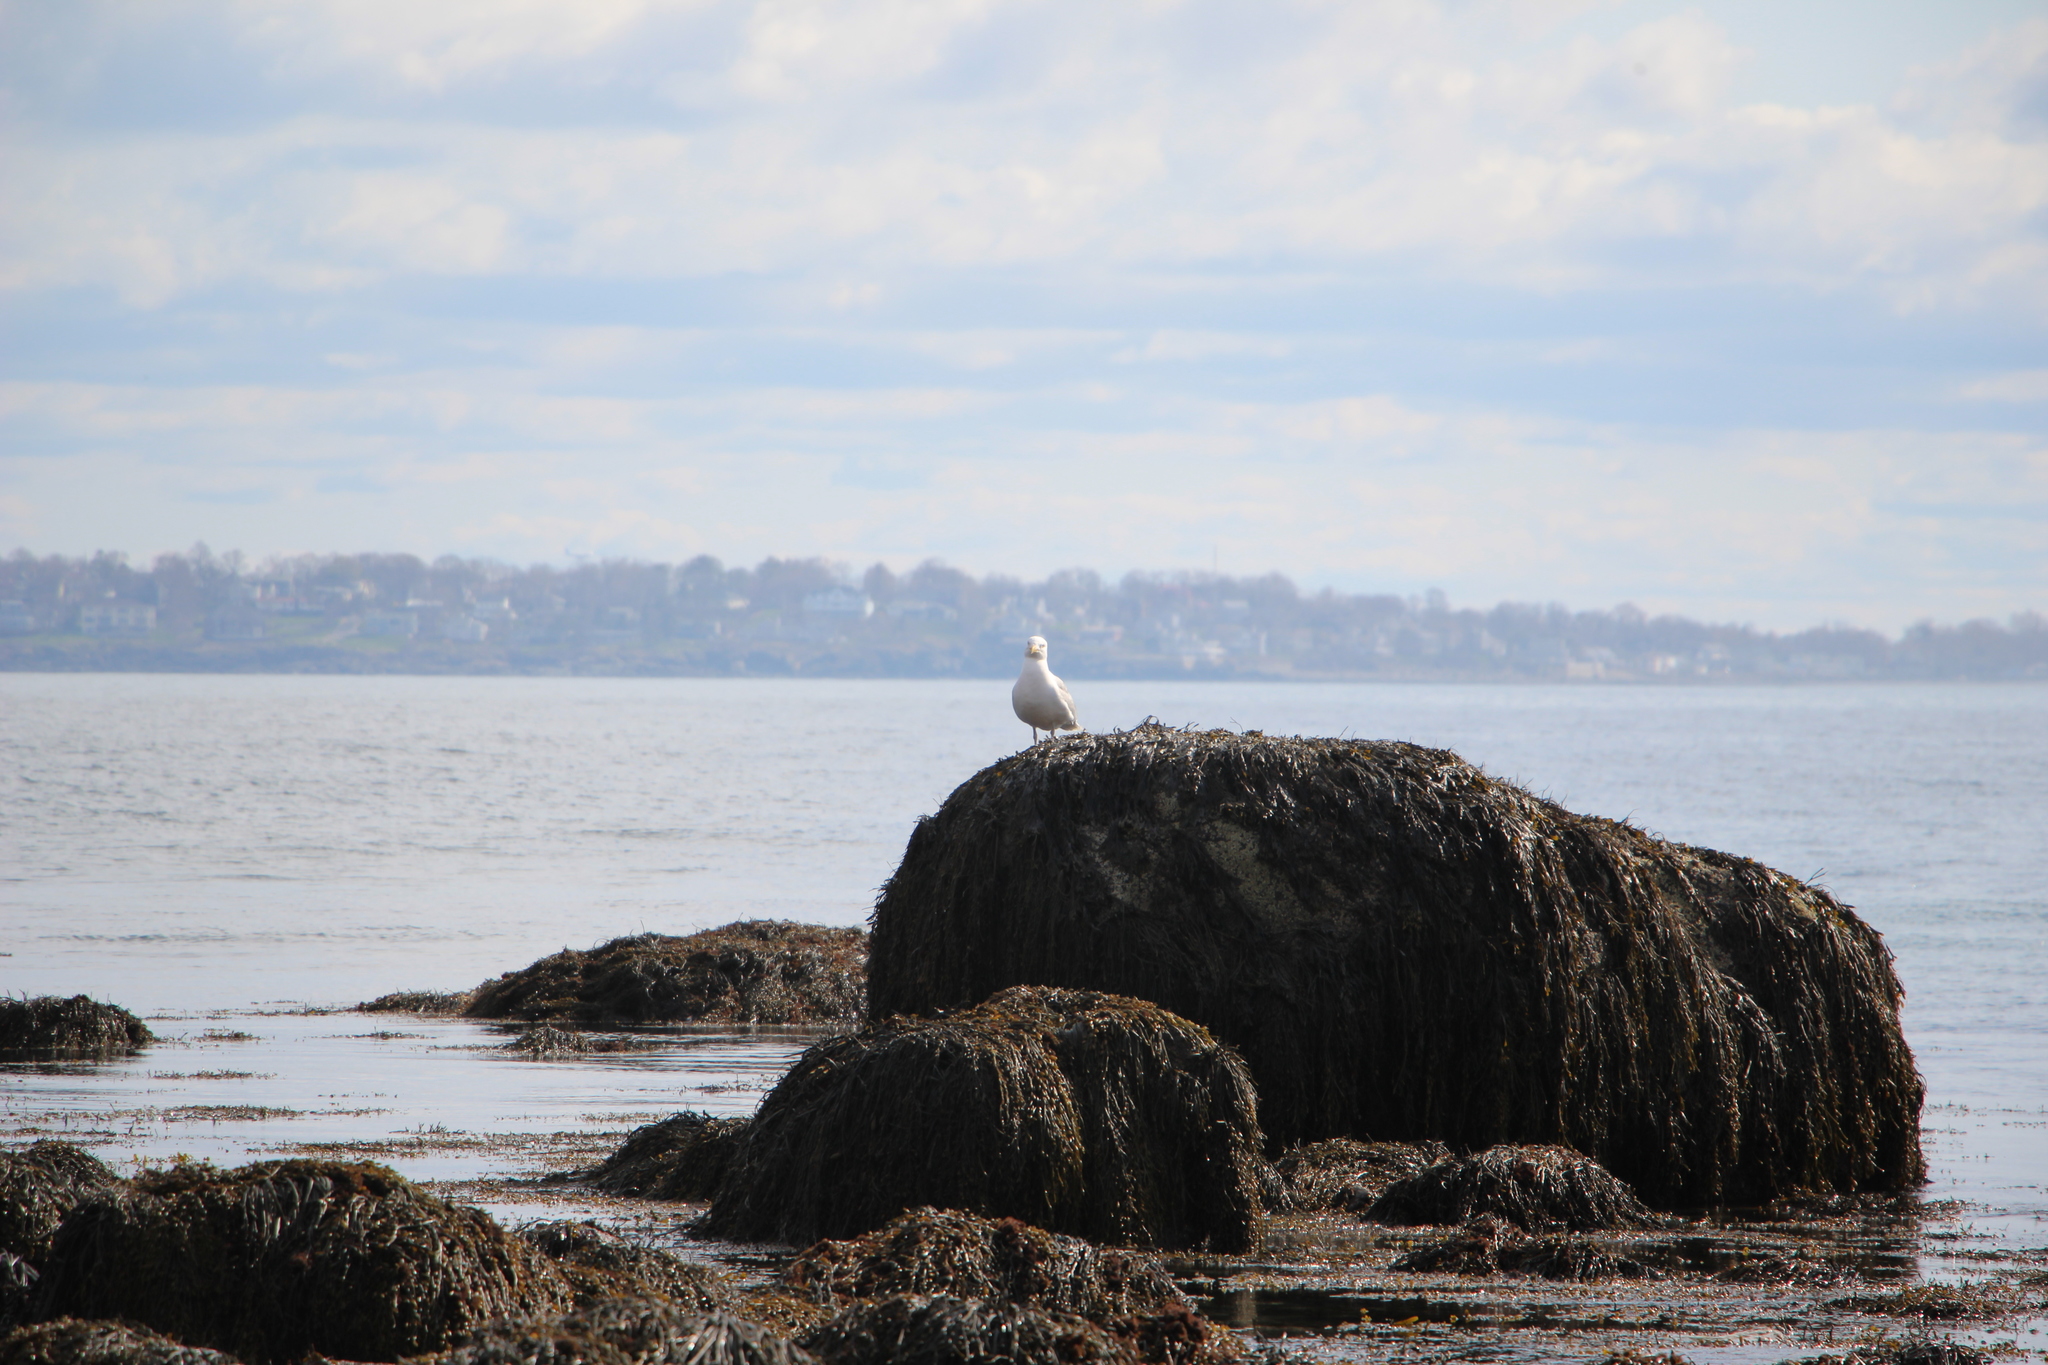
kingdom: Animalia
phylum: Chordata
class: Aves
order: Charadriiformes
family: Laridae
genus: Larus
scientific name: Larus argentatus
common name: Herring gull
